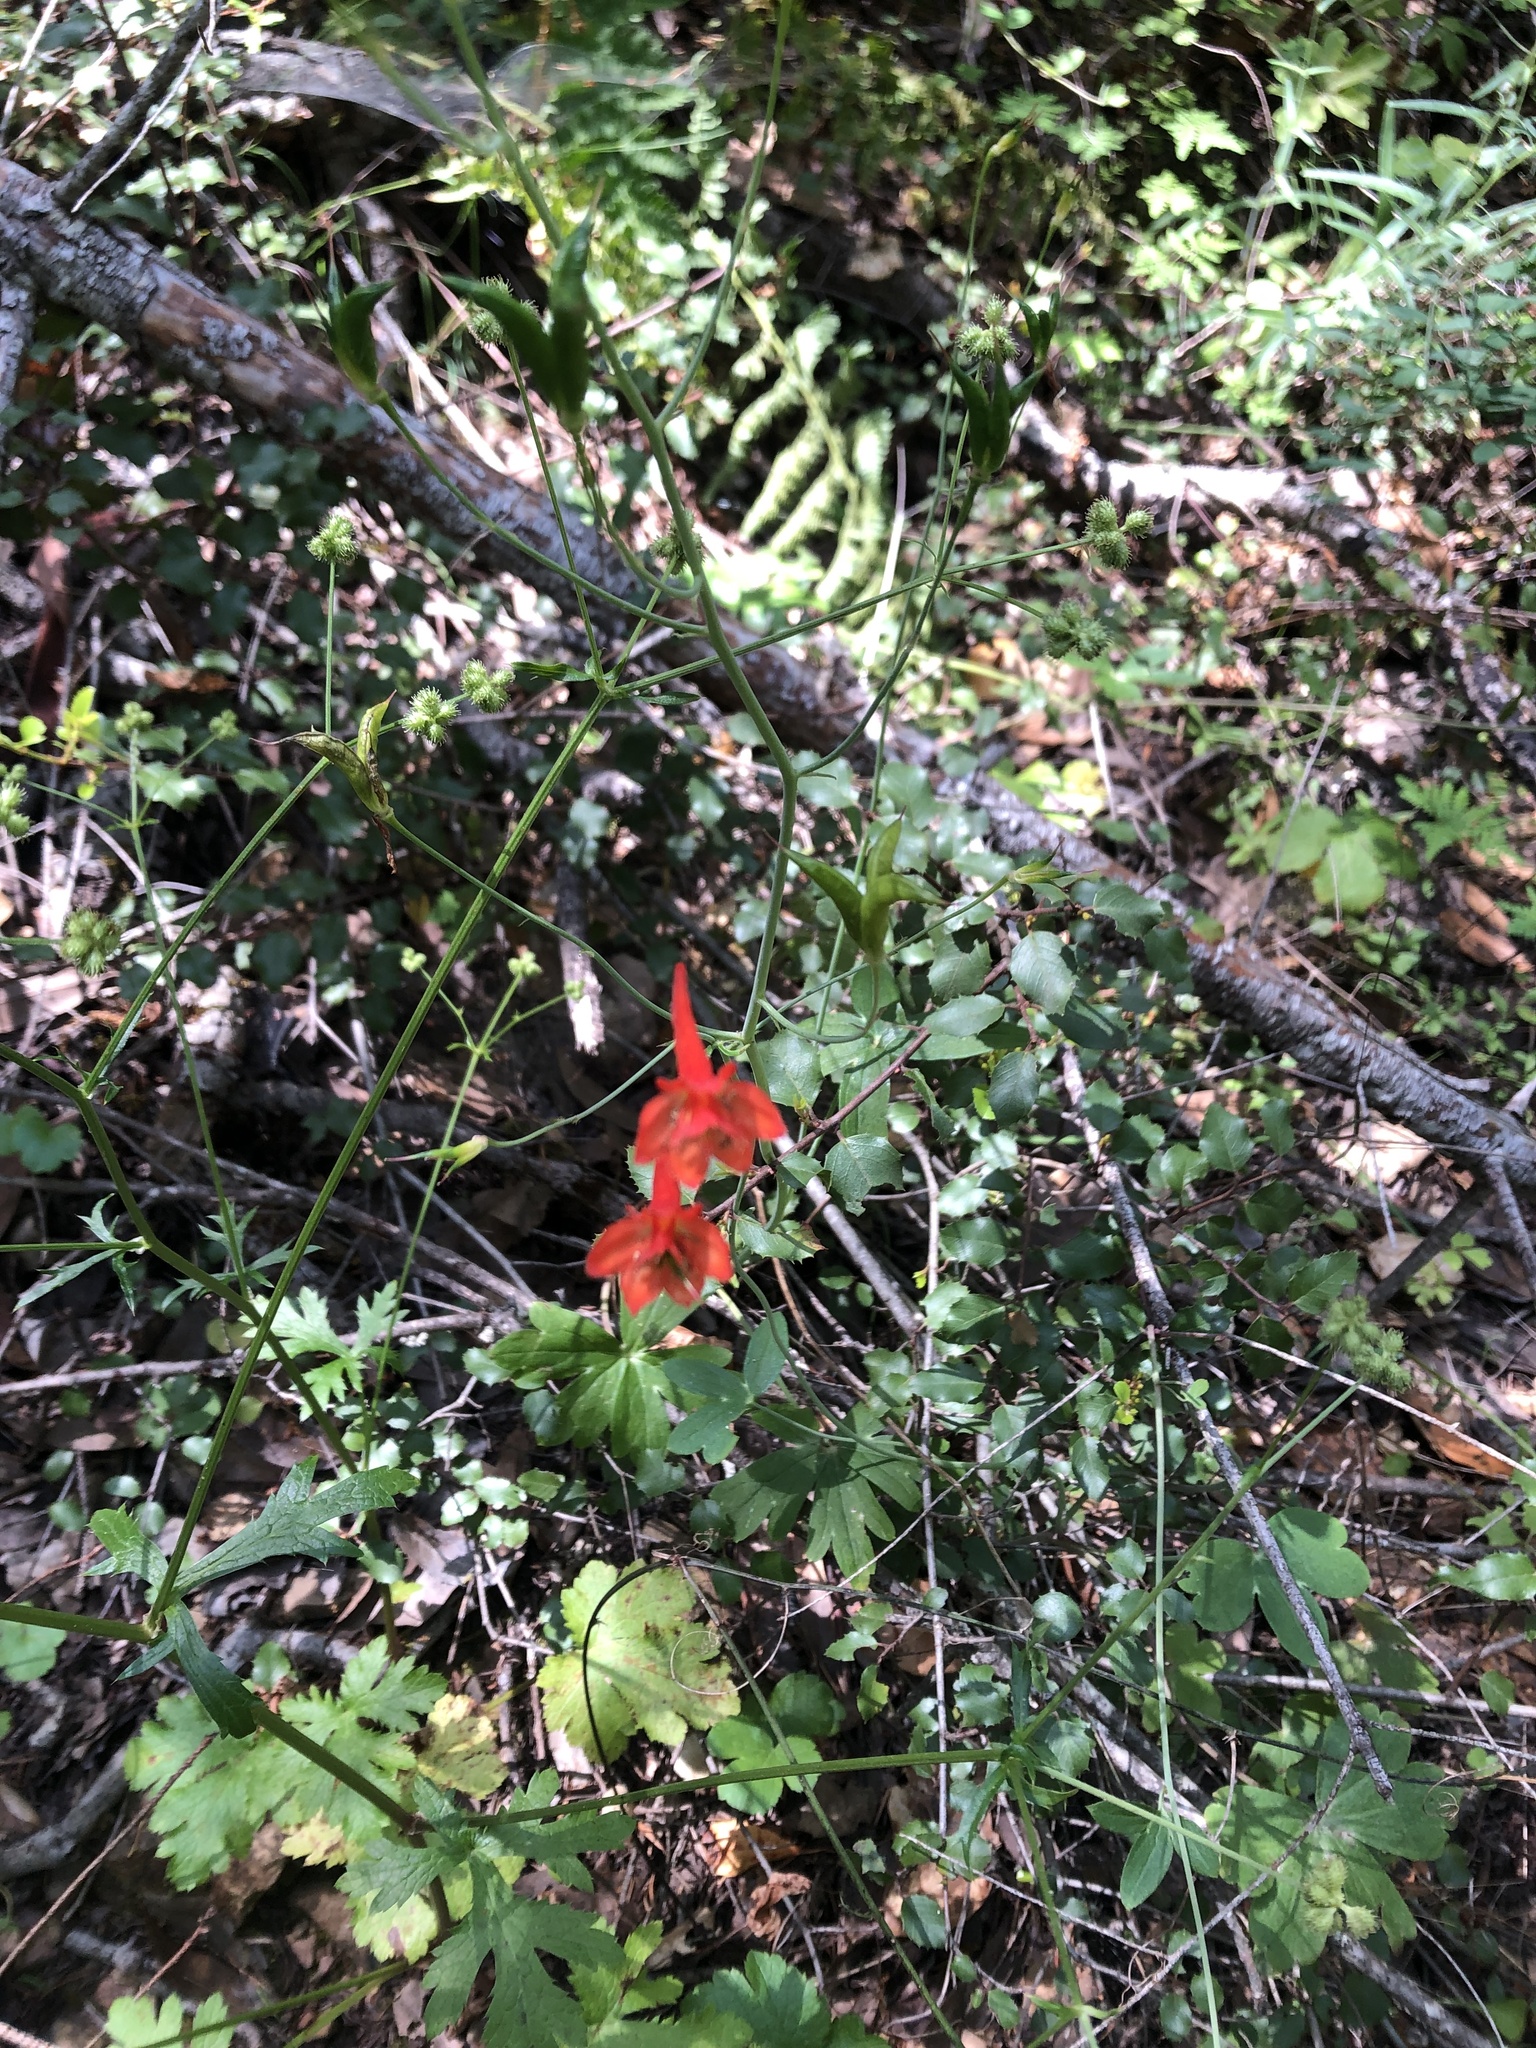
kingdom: Plantae
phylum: Tracheophyta
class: Magnoliopsida
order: Ranunculales
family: Ranunculaceae
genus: Delphinium
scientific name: Delphinium nudicaule
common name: Red larkspur
